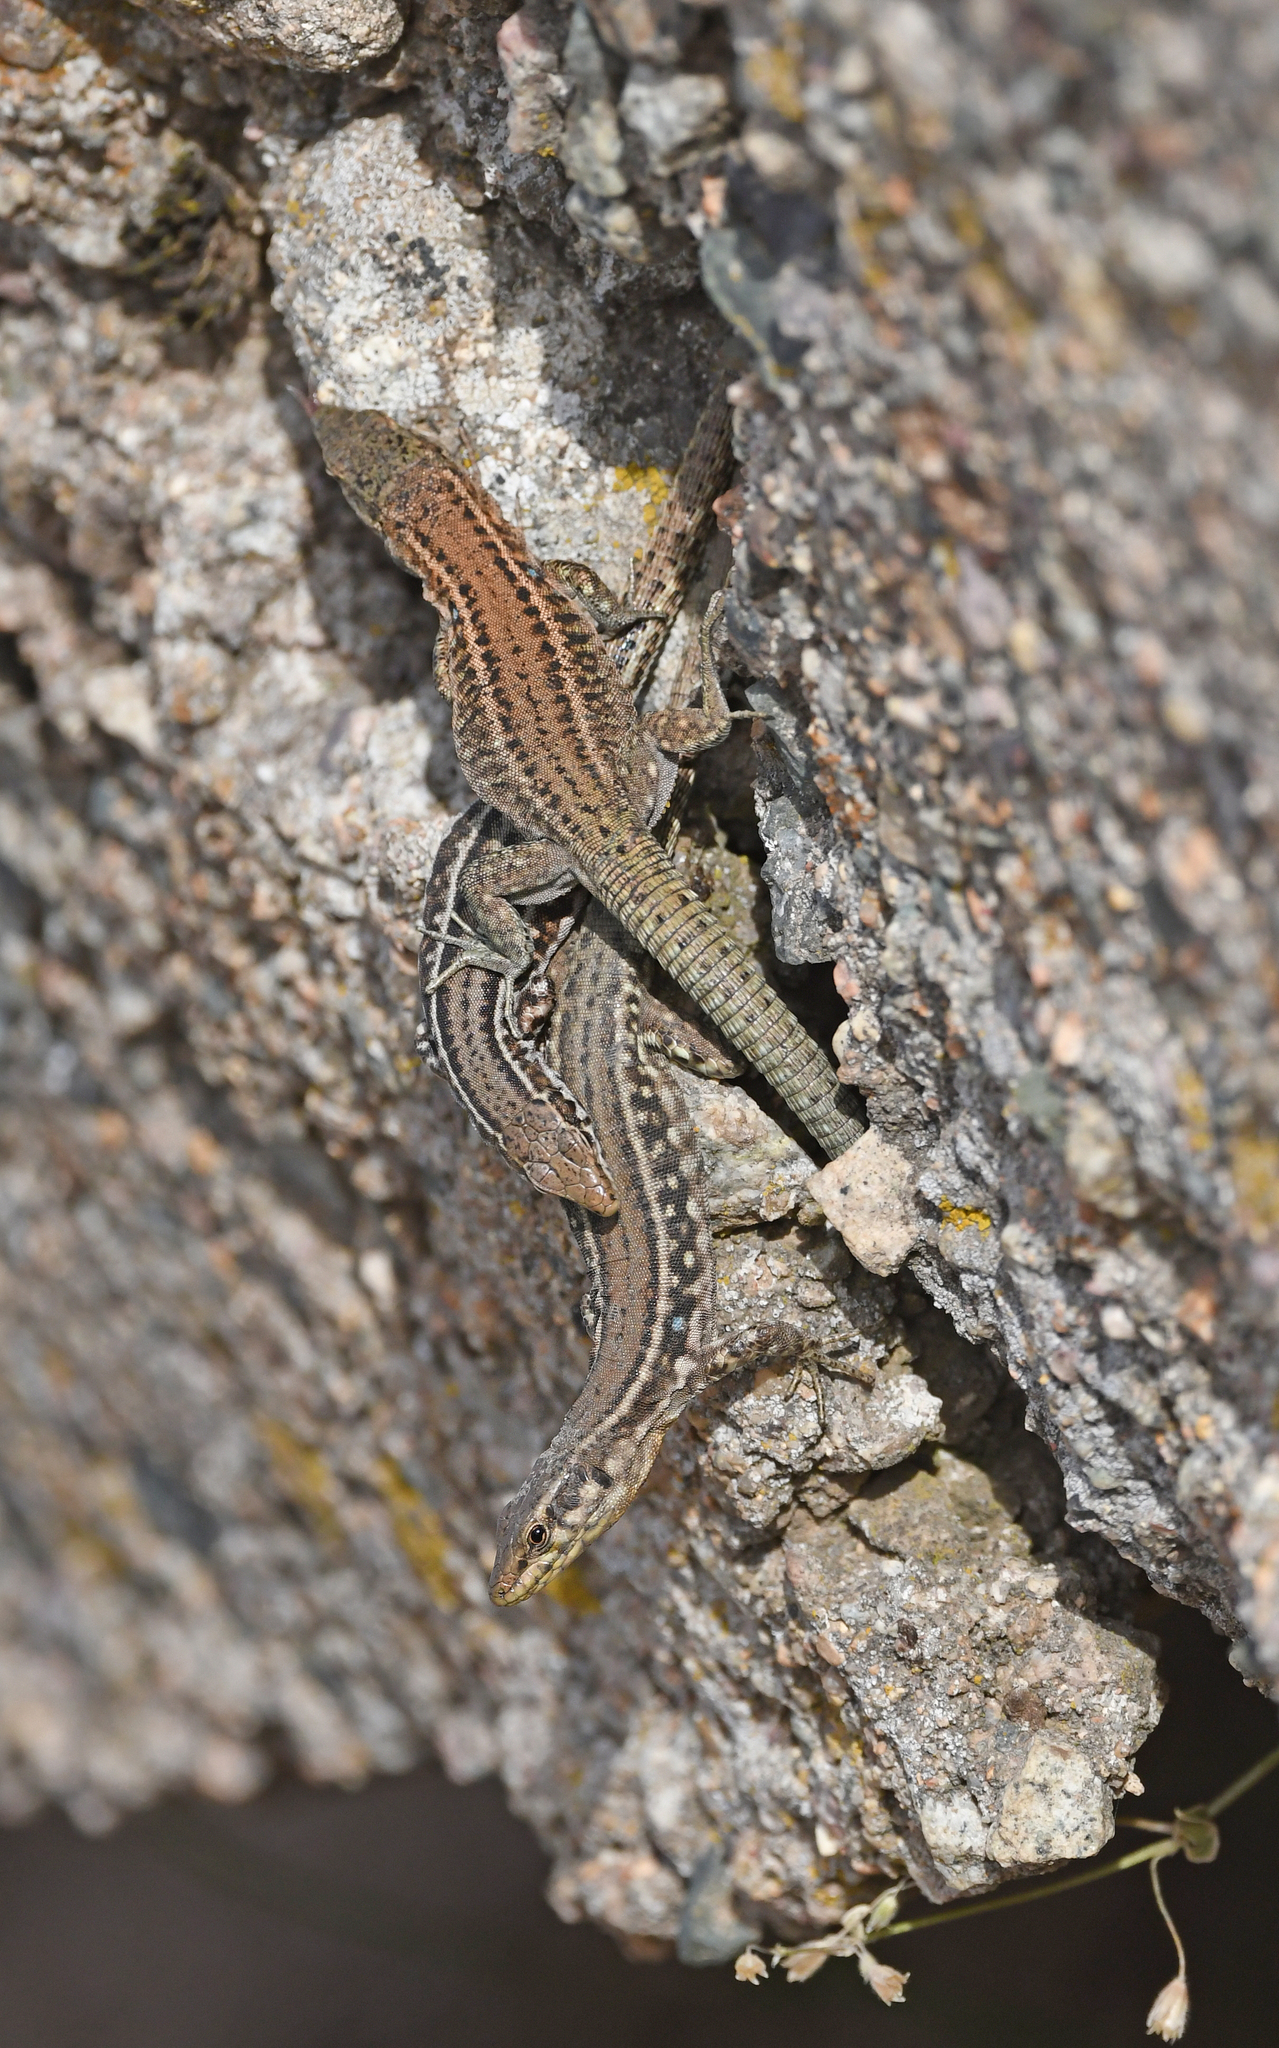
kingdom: Animalia
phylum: Chordata
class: Squamata
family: Lacertidae
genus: Podarcis
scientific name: Podarcis tiliguerta
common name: Tyrrhenian wall lizard
